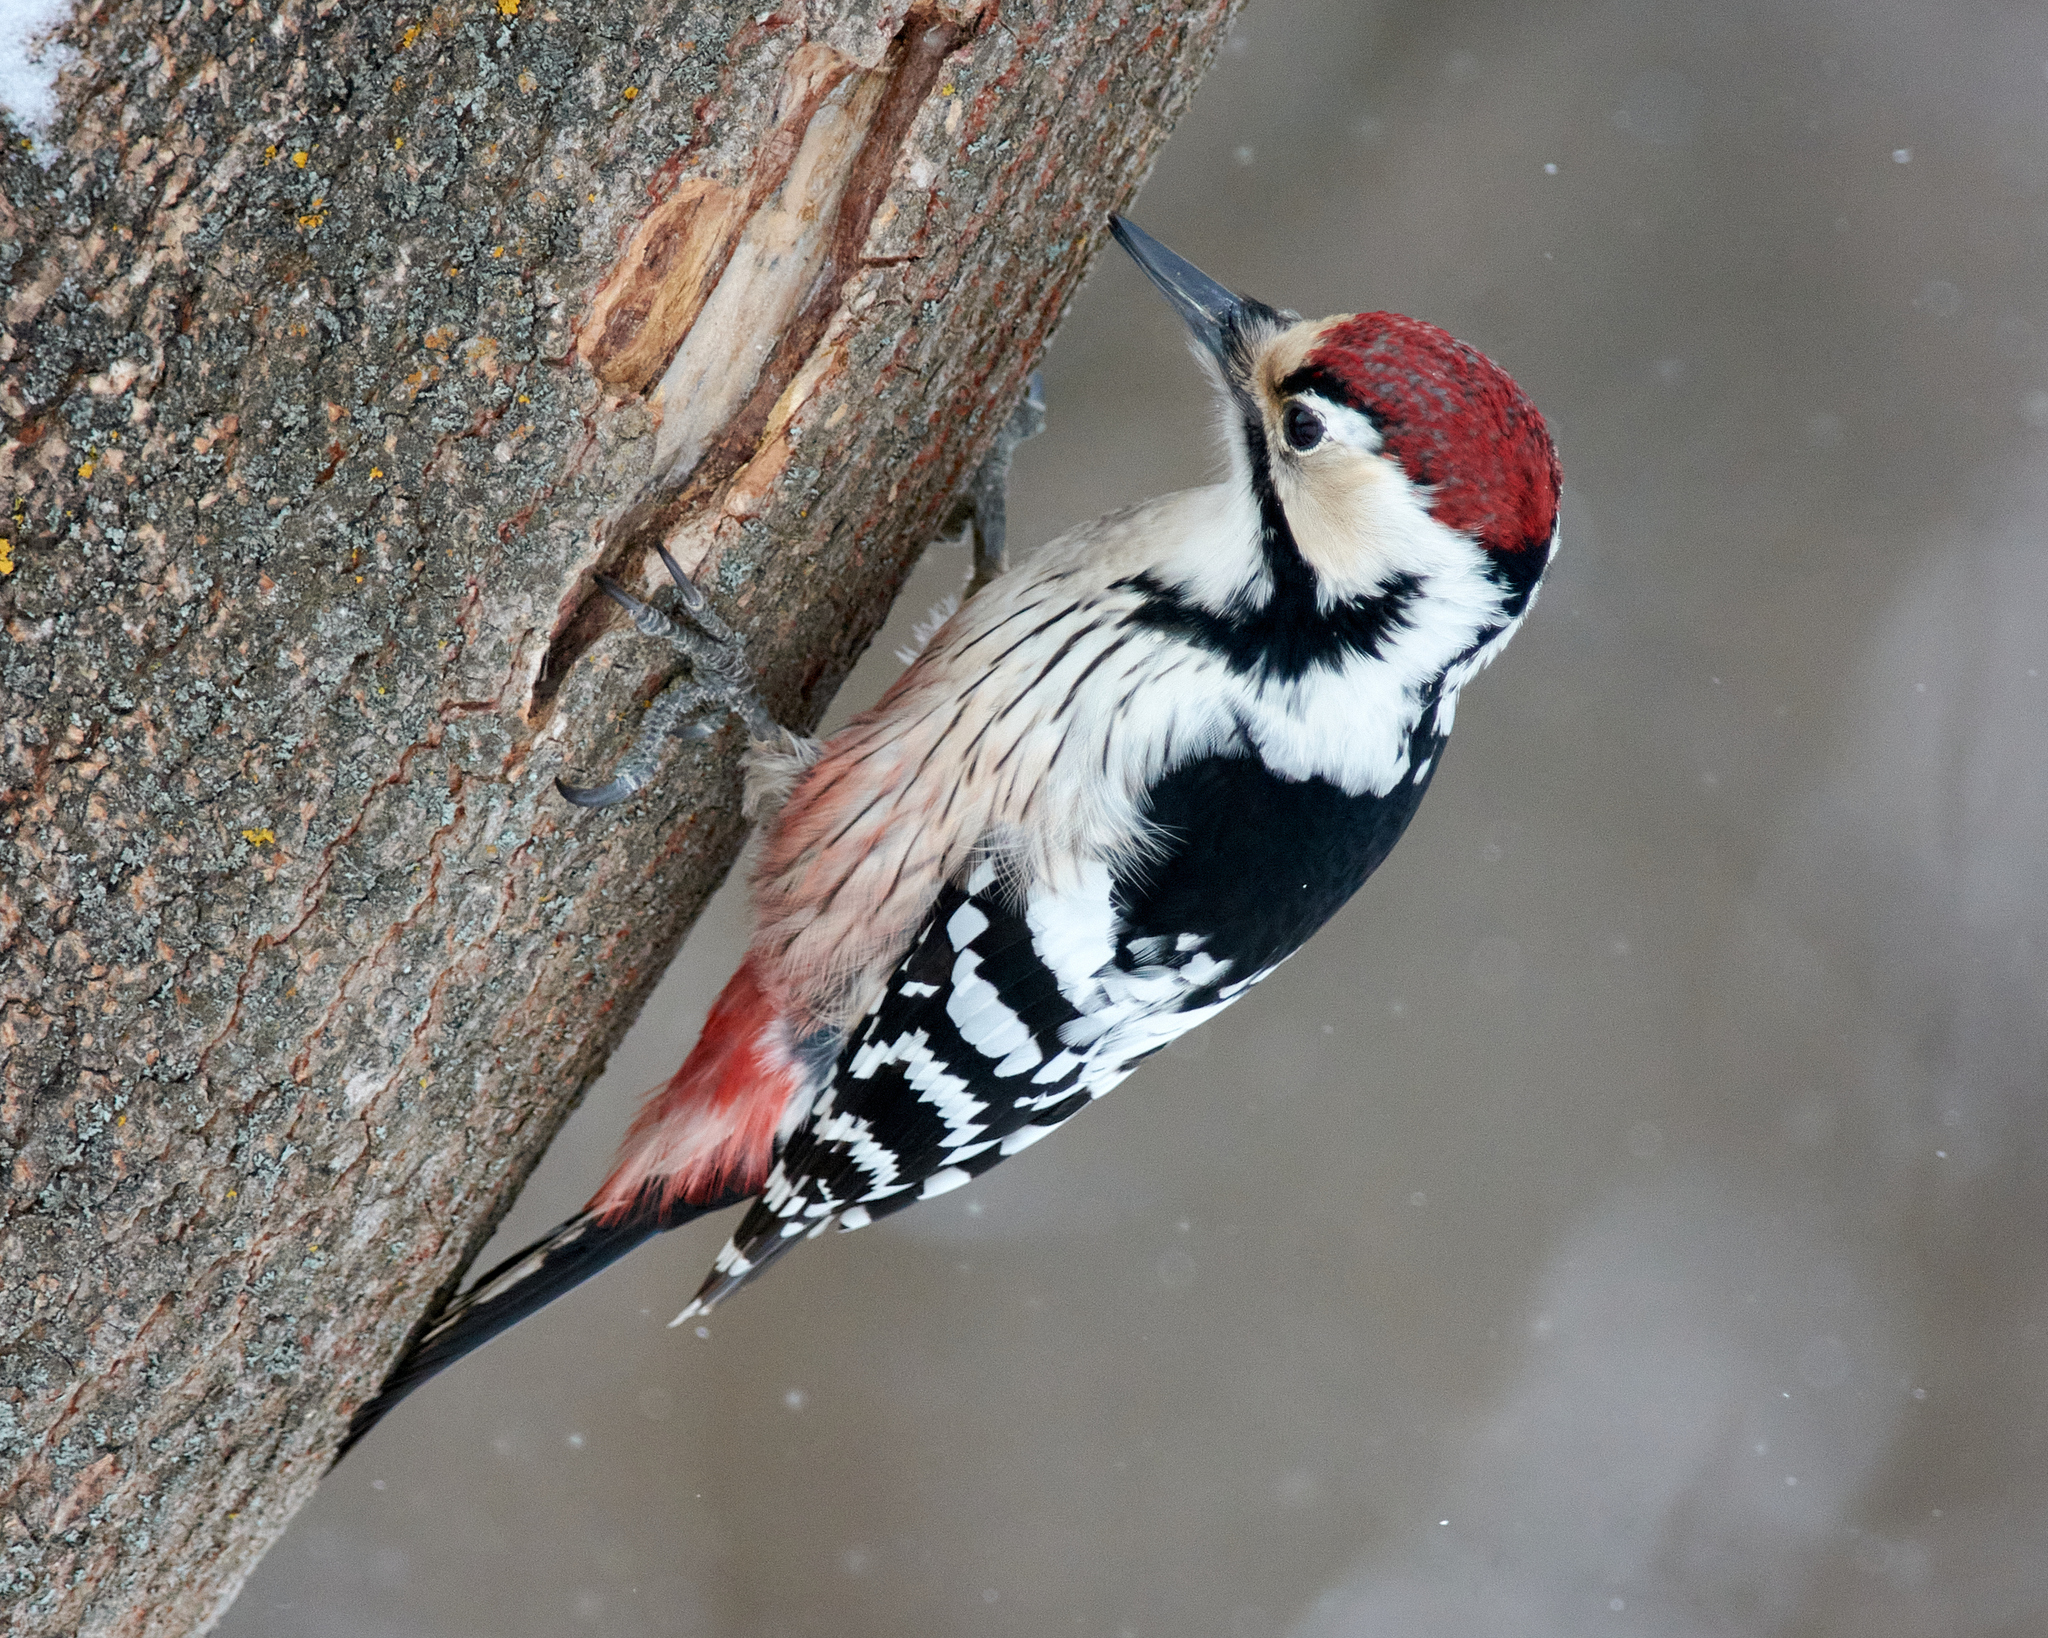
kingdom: Animalia
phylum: Chordata
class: Aves
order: Piciformes
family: Picidae
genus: Dendrocopos
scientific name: Dendrocopos leucotos
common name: White-backed woodpecker
